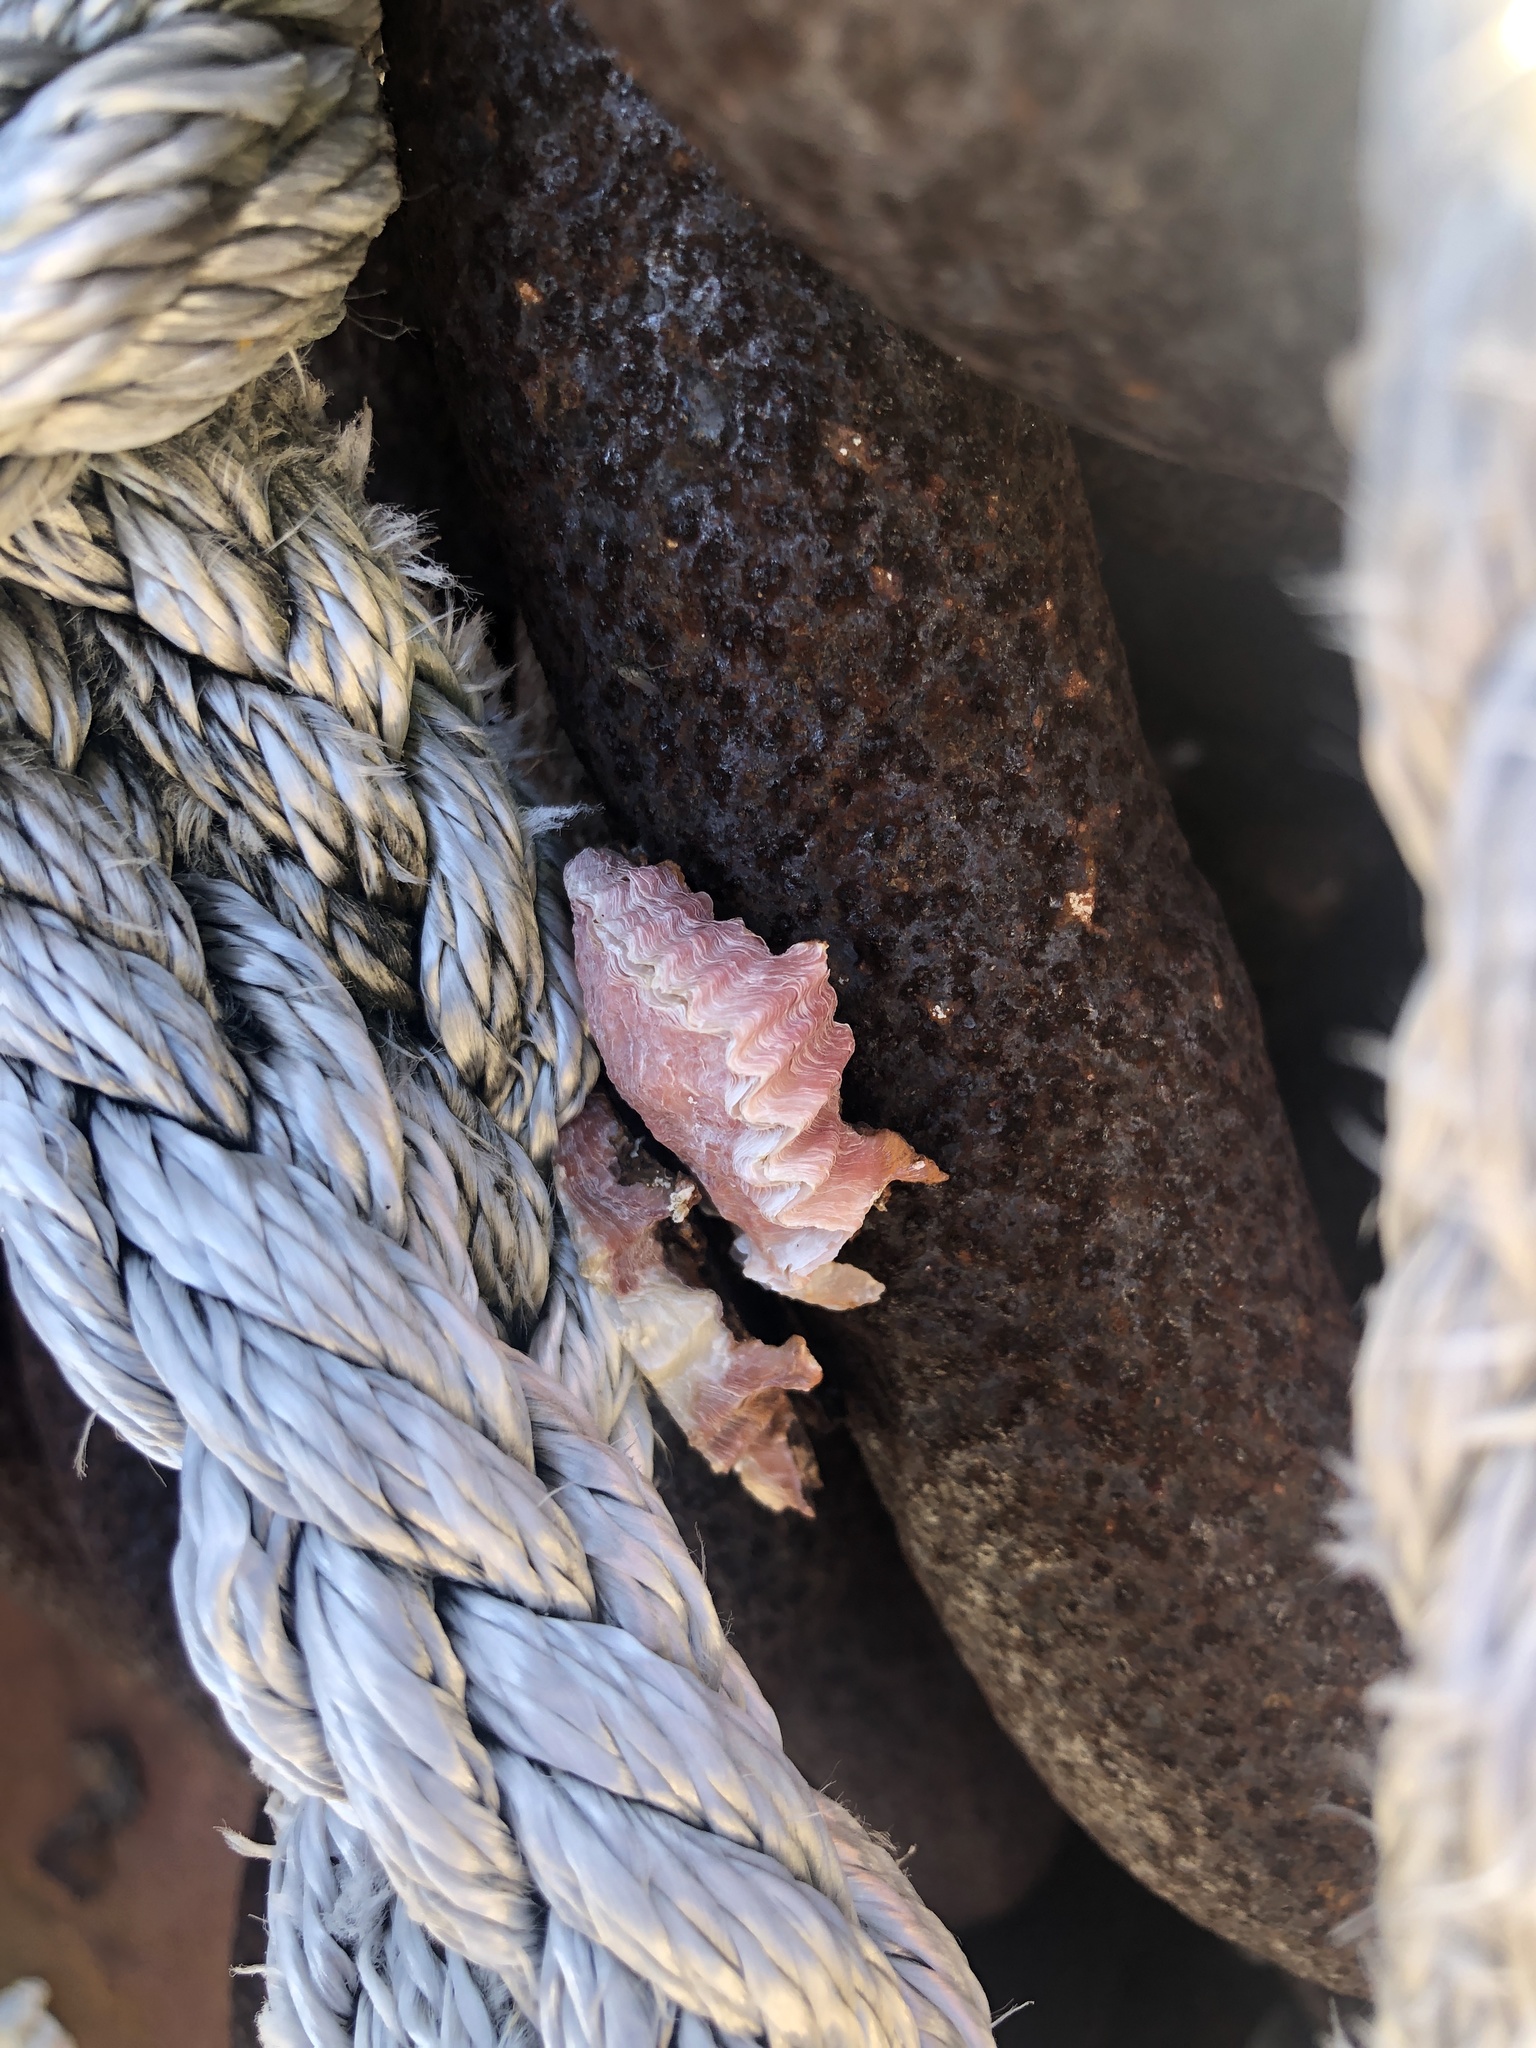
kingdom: Animalia
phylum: Mollusca
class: Bivalvia
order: Ostreida
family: Ostreidae
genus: Dendostrea
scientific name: Dendostrea frons
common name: Frond oyster
